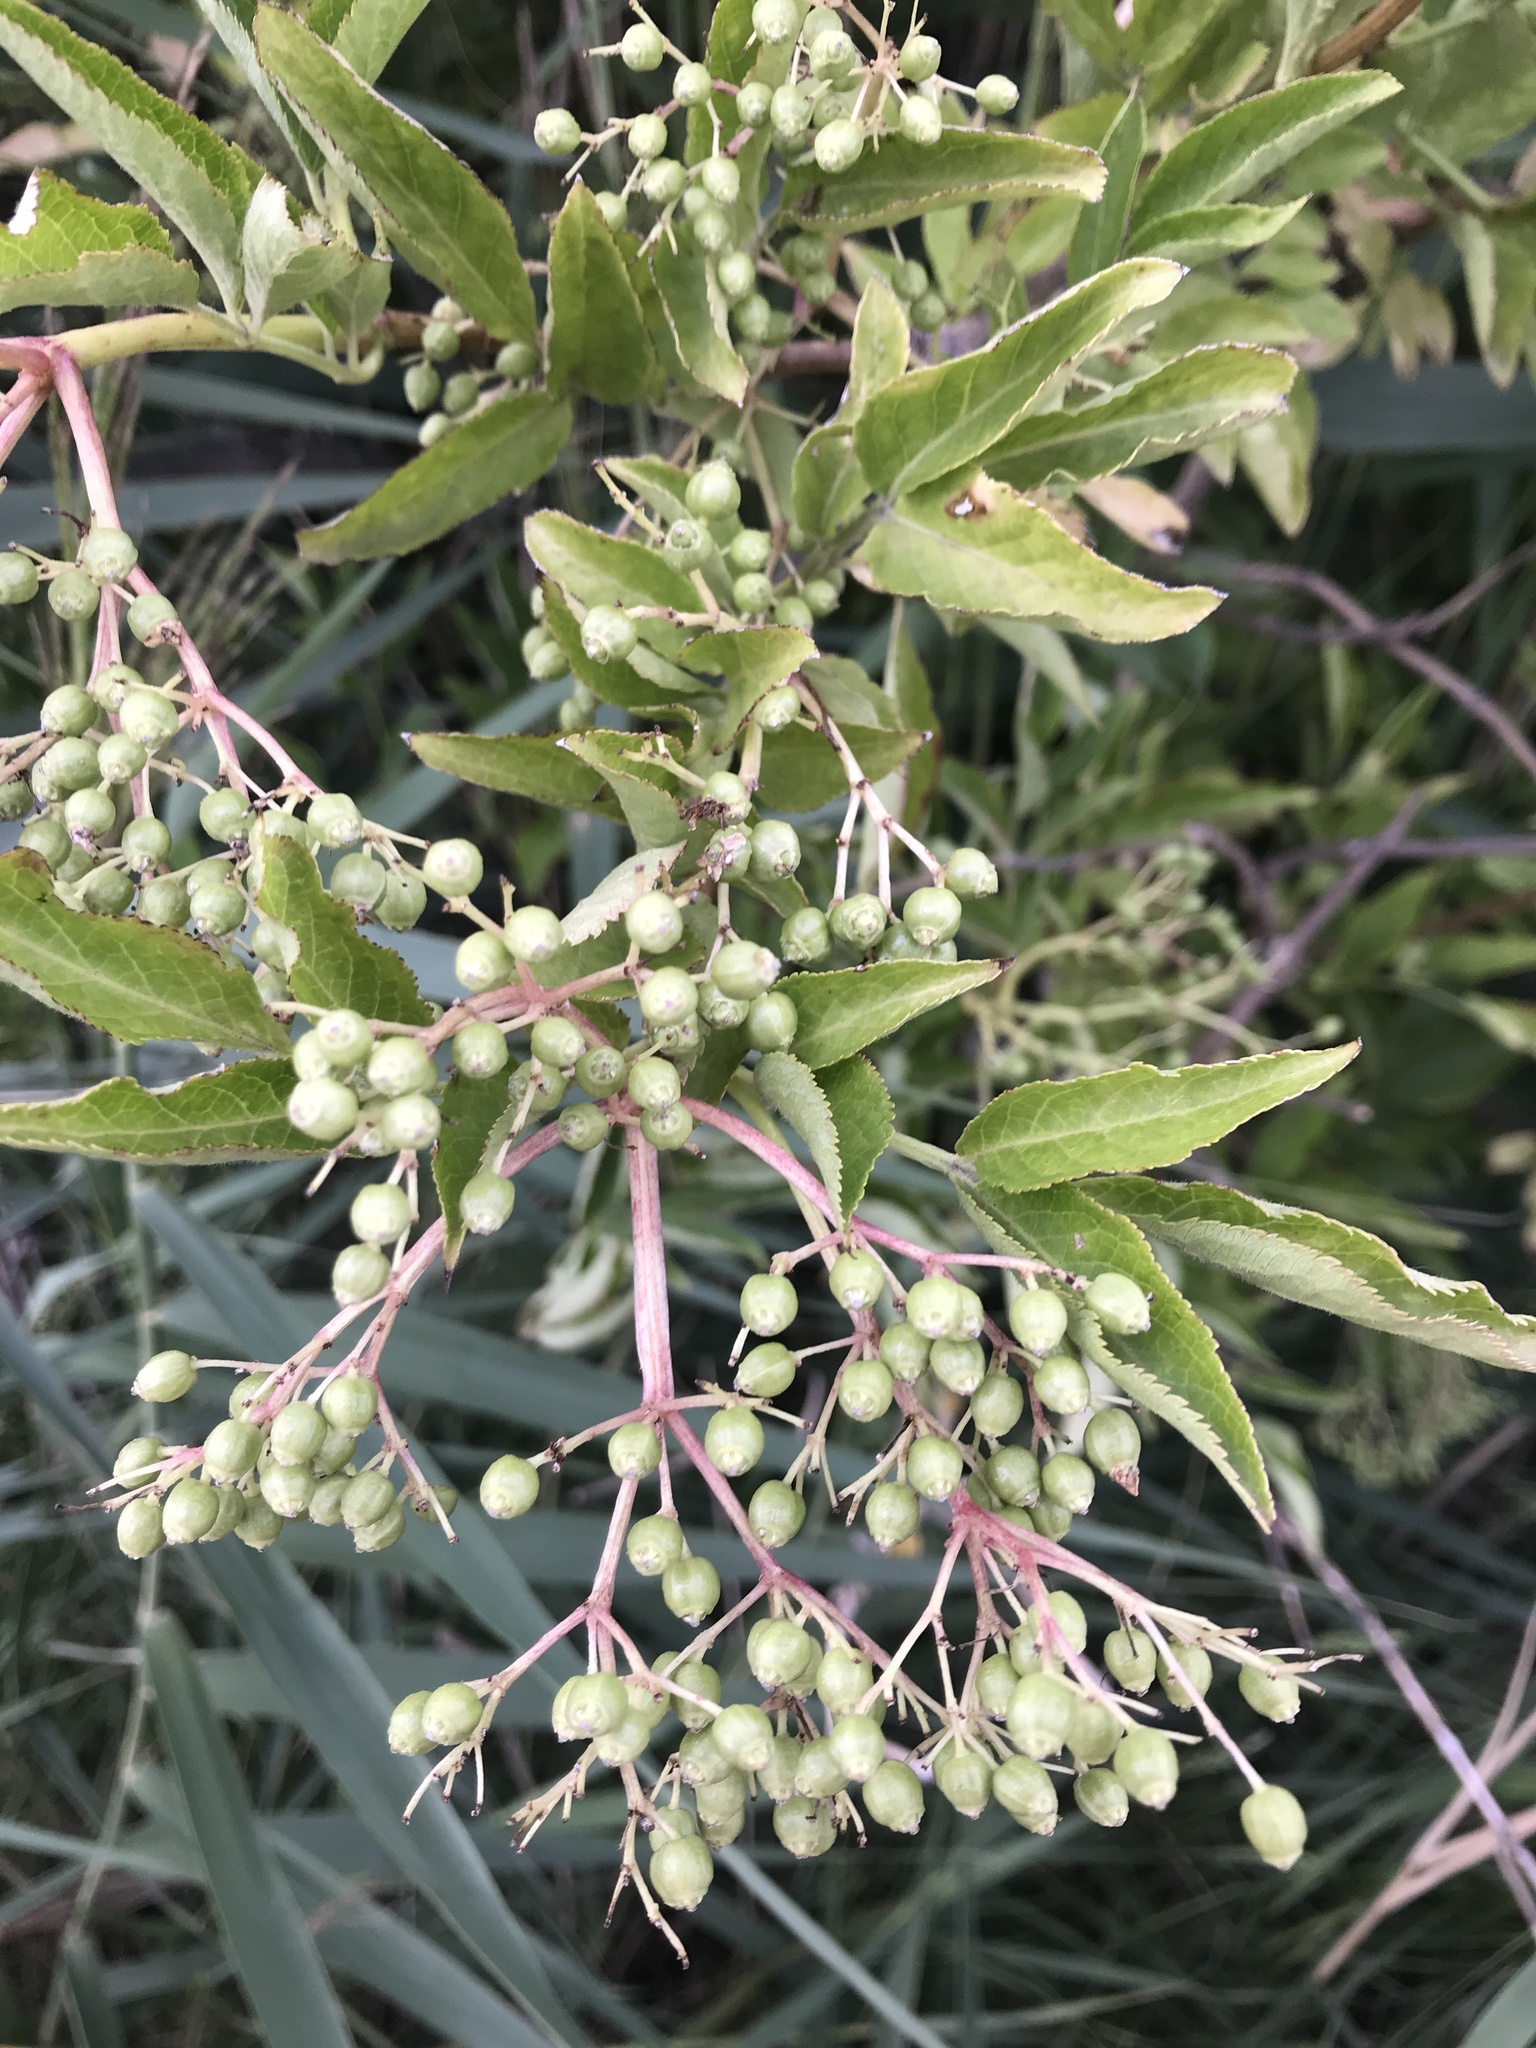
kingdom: Plantae
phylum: Tracheophyta
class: Magnoliopsida
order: Dipsacales
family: Viburnaceae
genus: Sambucus
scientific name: Sambucus nigra
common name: Elder
